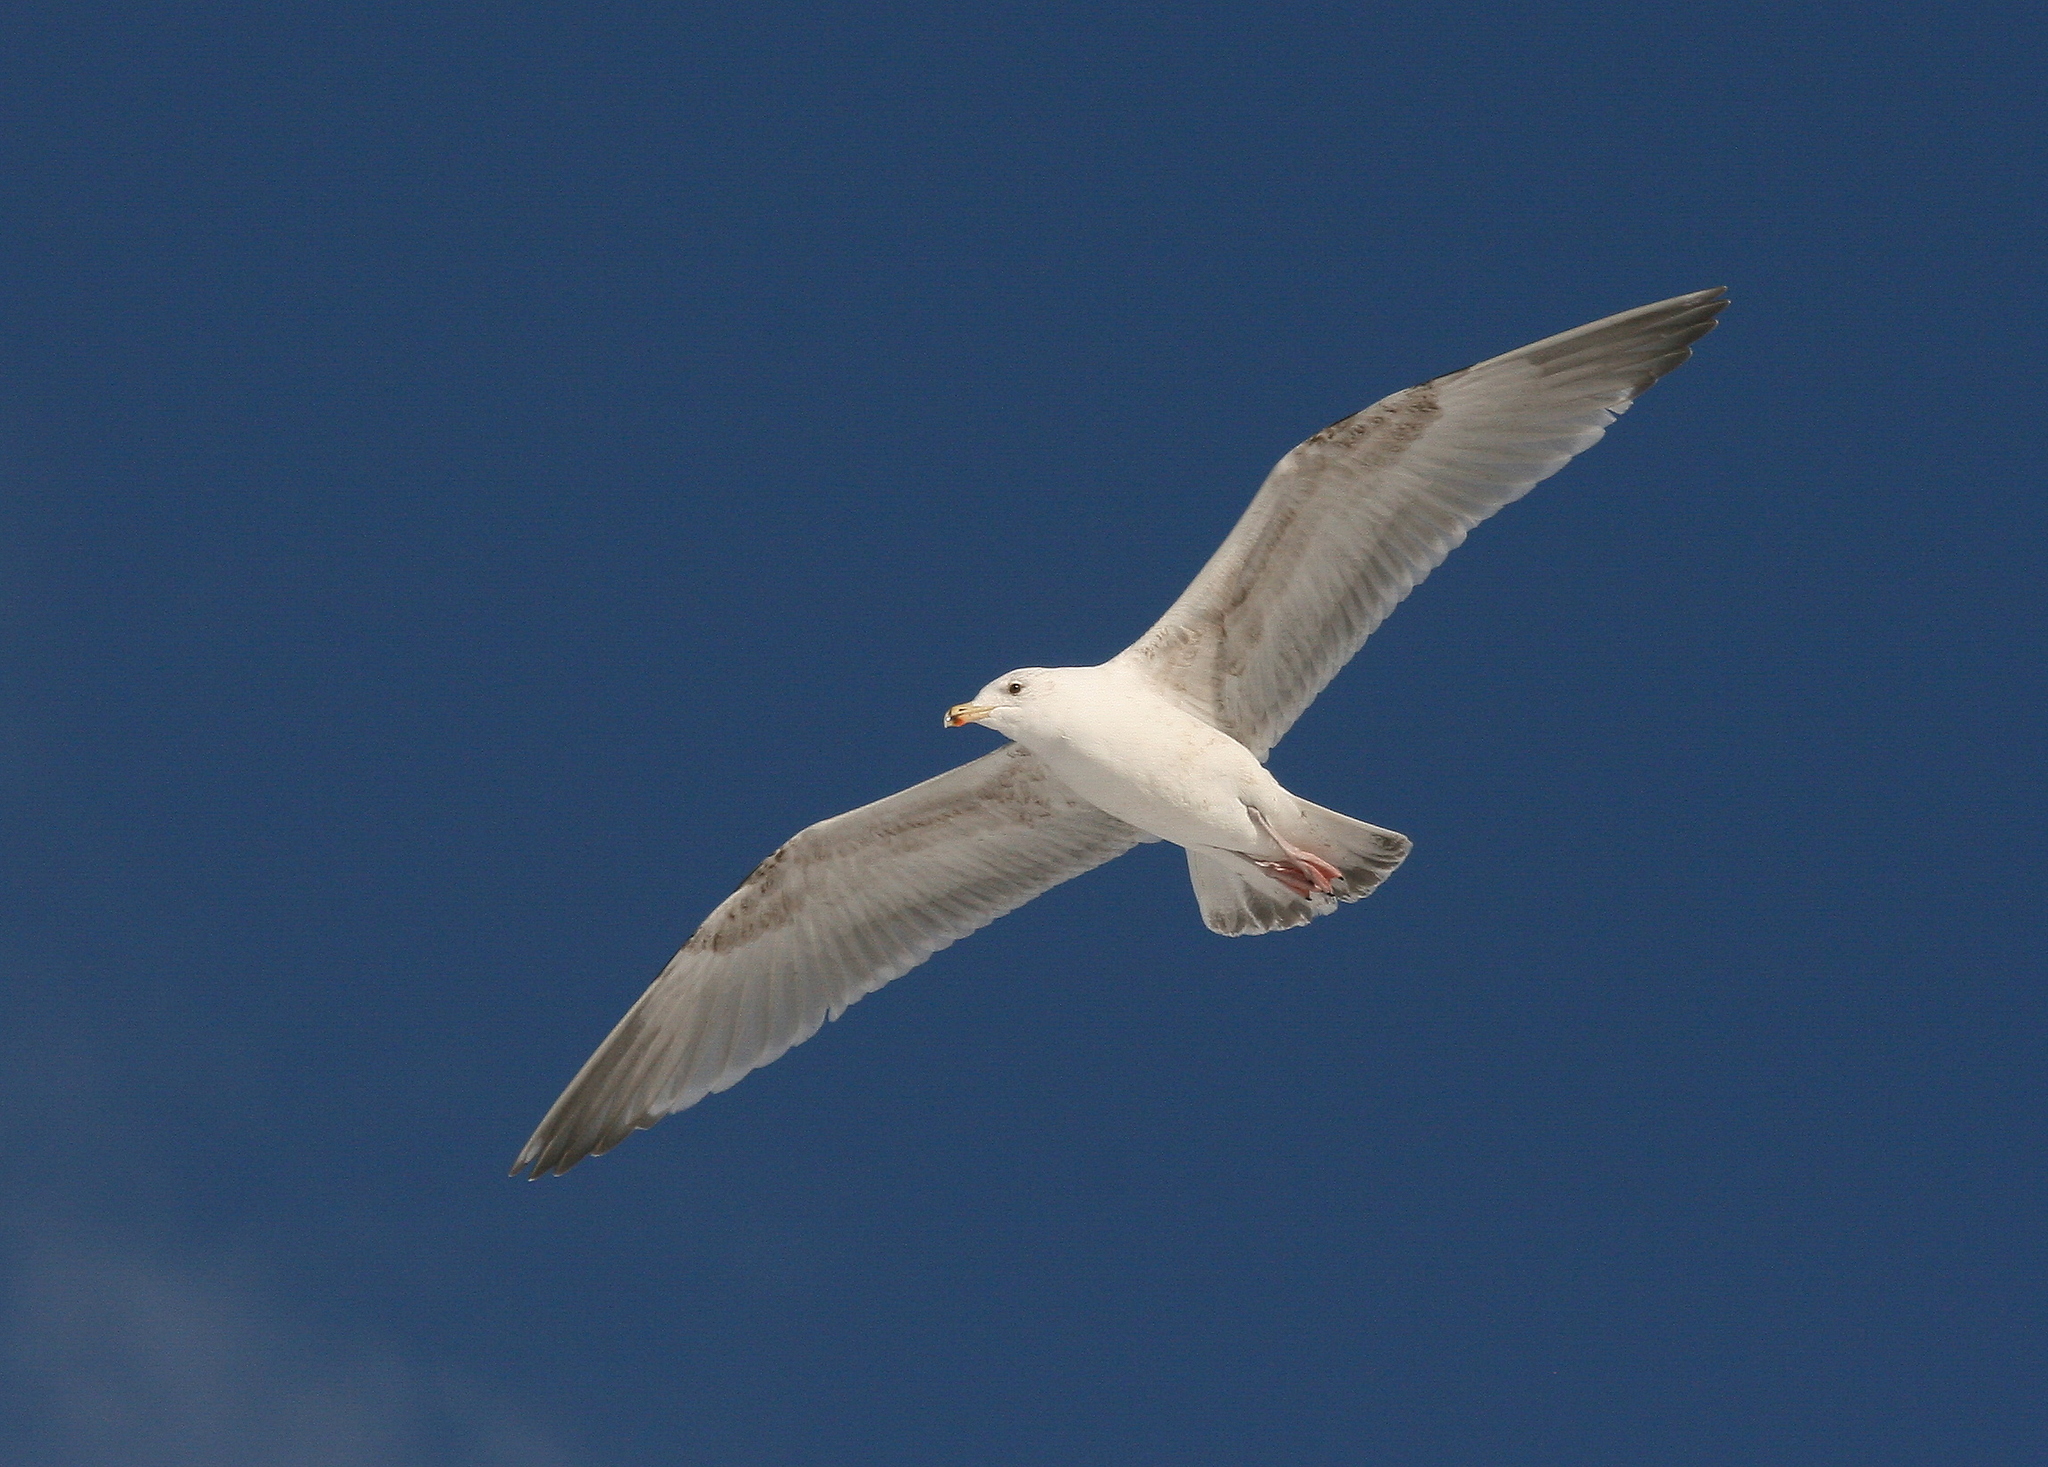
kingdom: Animalia
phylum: Chordata
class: Aves
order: Charadriiformes
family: Laridae
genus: Larus
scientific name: Larus marinus
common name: Great black-backed gull
